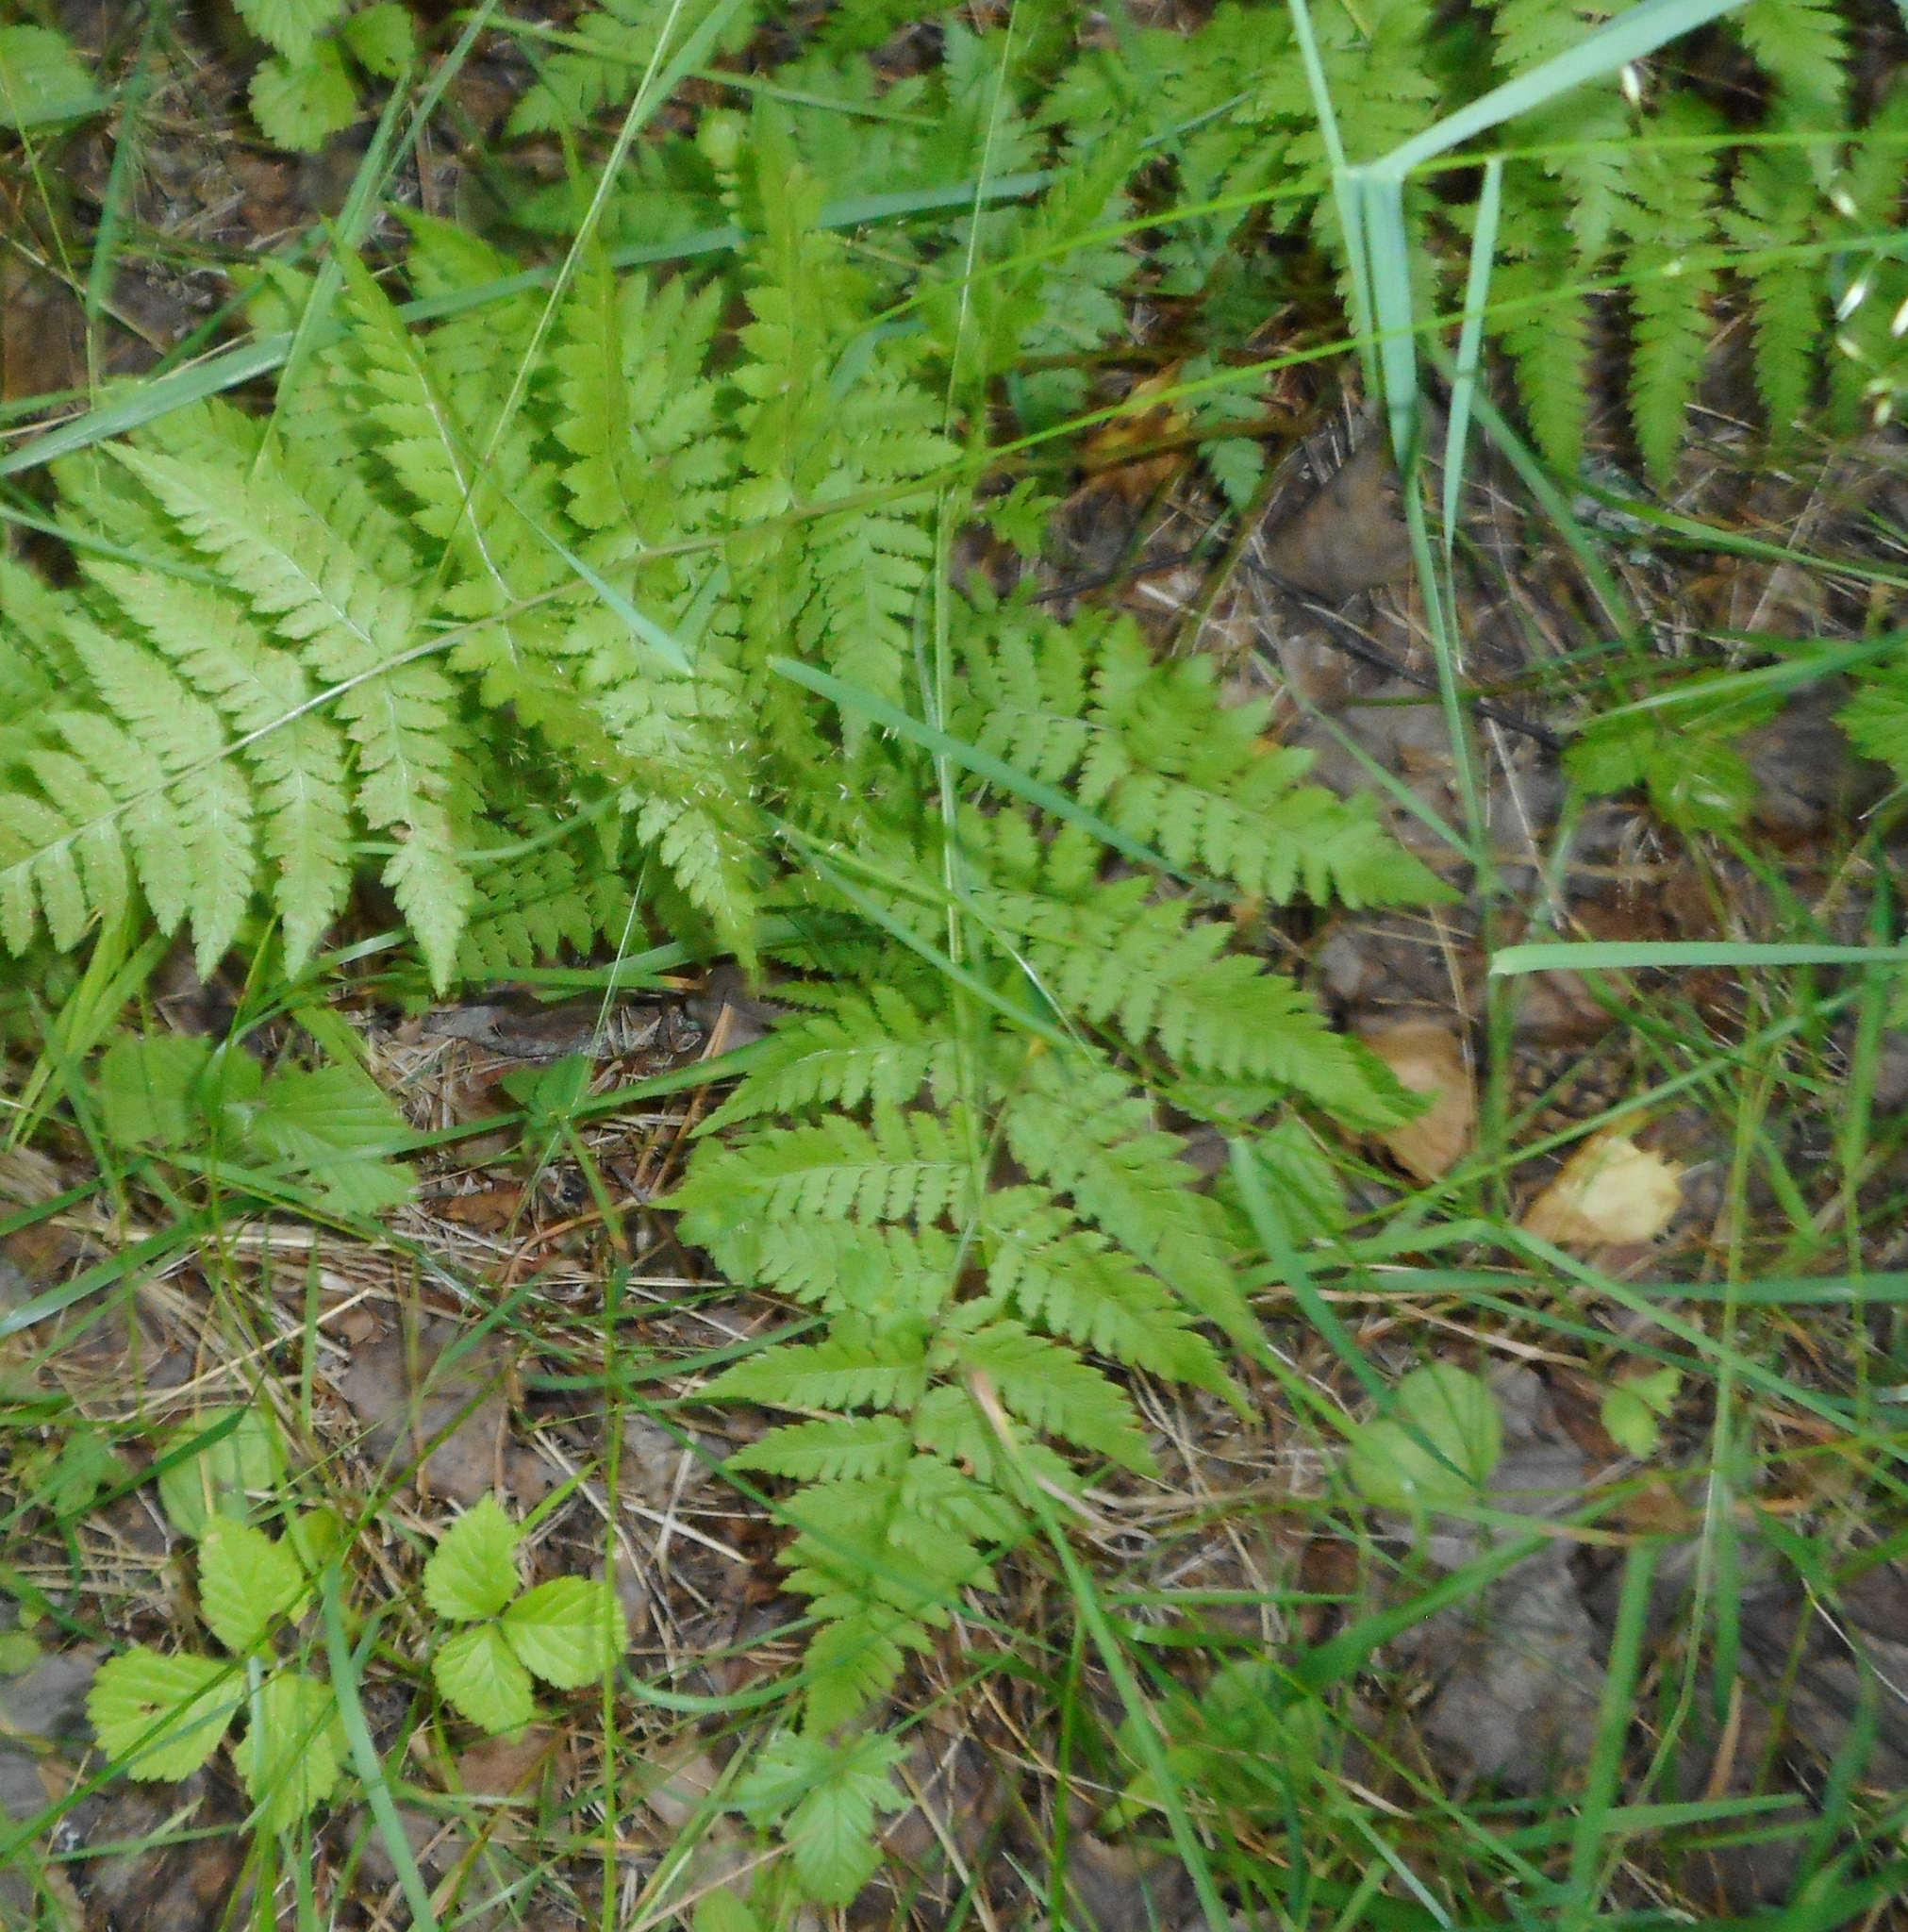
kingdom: Plantae
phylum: Tracheophyta
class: Polypodiopsida
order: Polypodiales
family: Dryopteridaceae
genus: Dryopteris
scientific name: Dryopteris carthusiana
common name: Narrow buckler-fern
